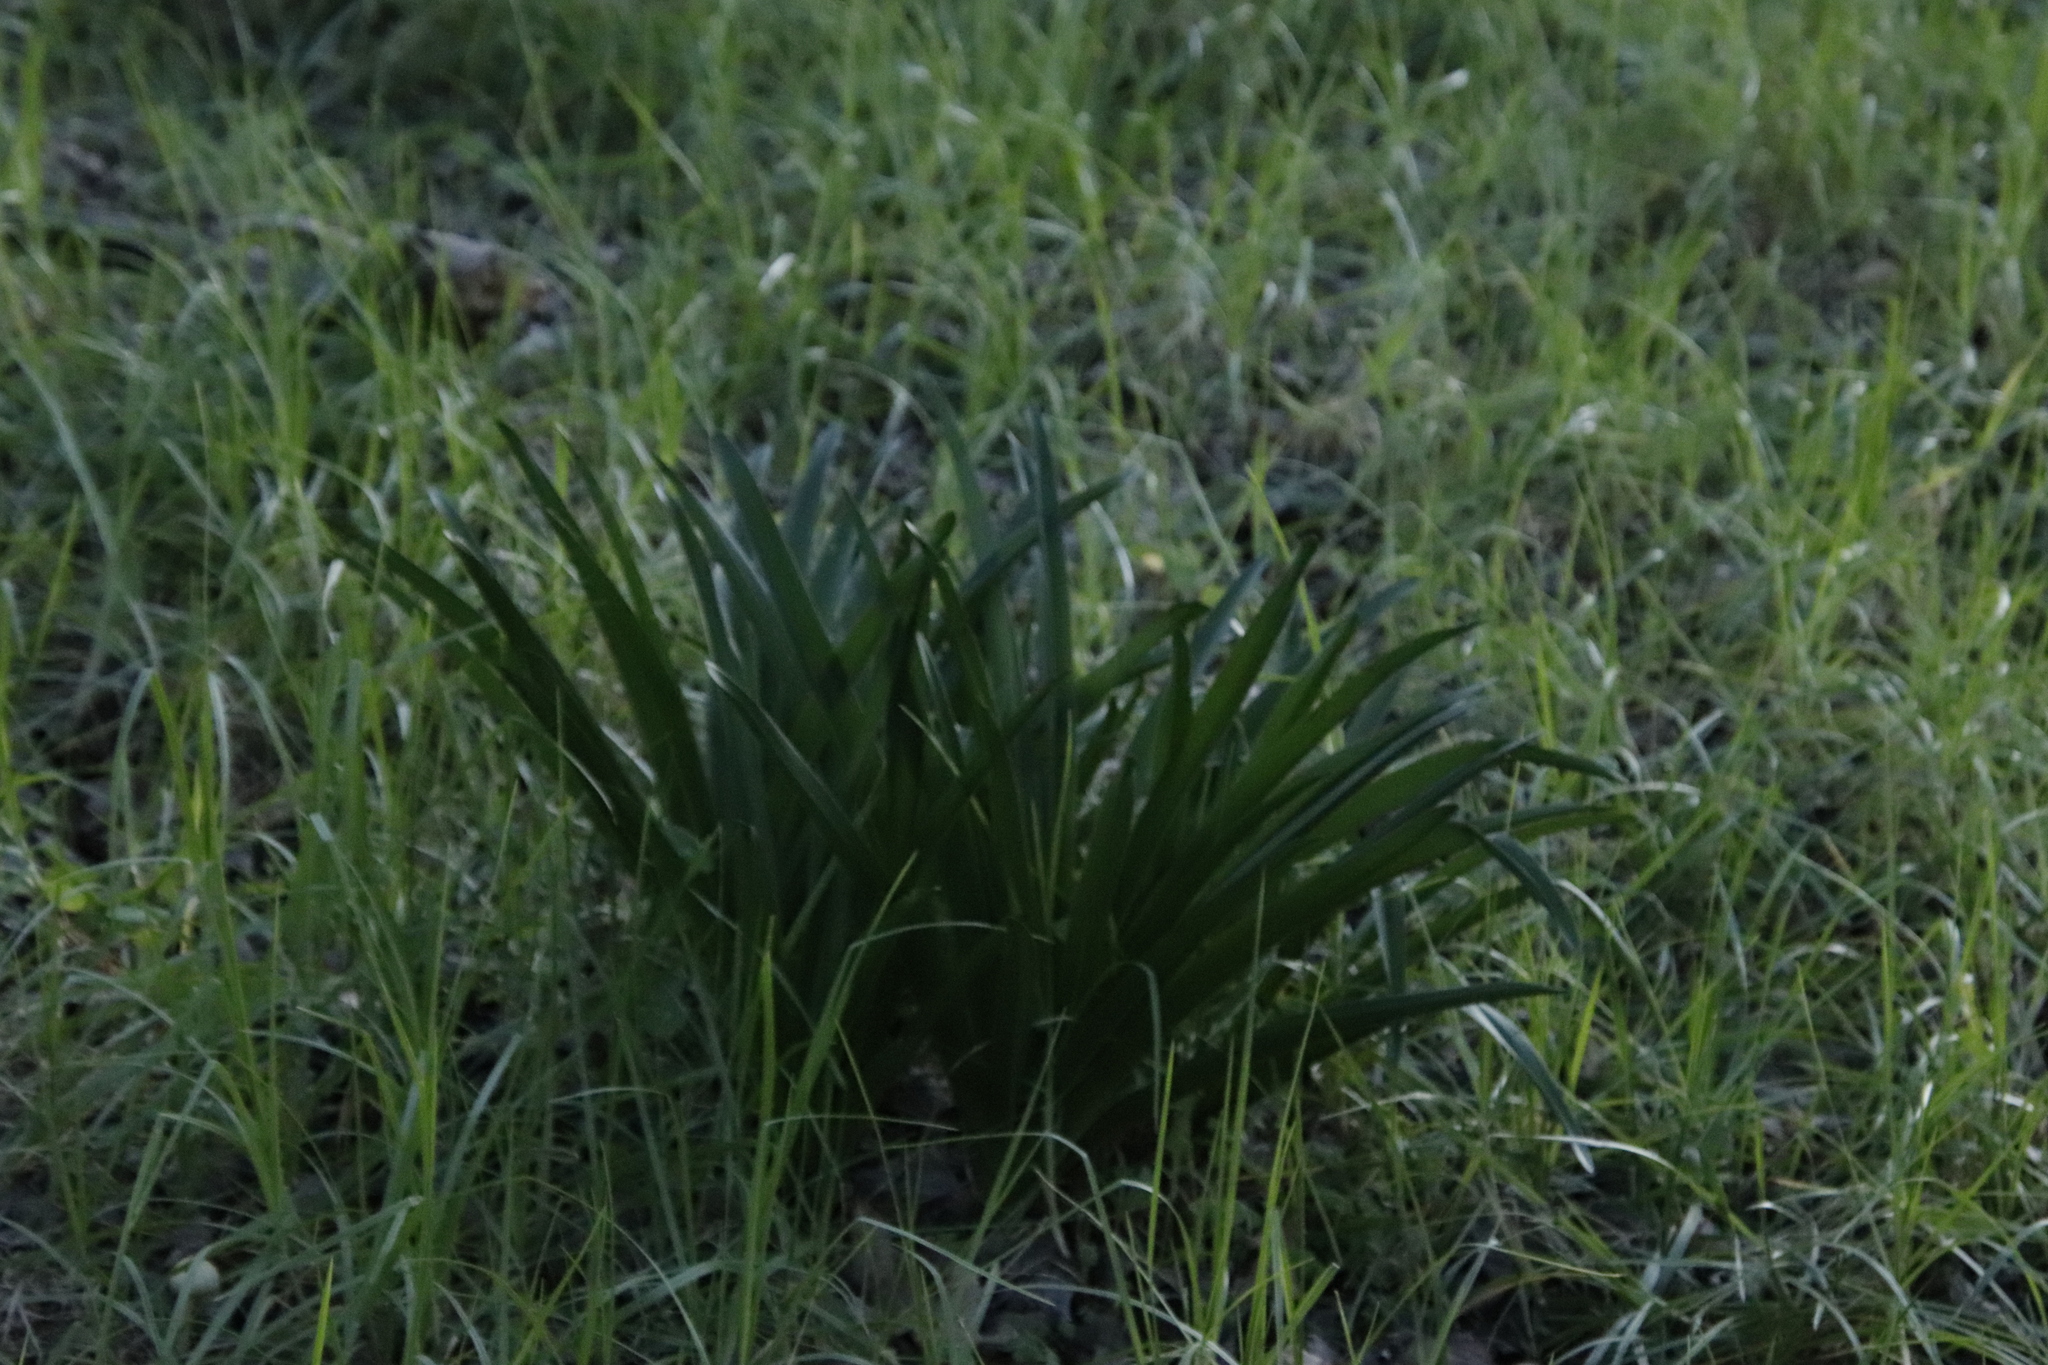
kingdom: Plantae
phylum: Tracheophyta
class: Liliopsida
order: Asparagales
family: Amaryllidaceae
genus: Agapanthus
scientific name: Agapanthus praecox
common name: African-lily
